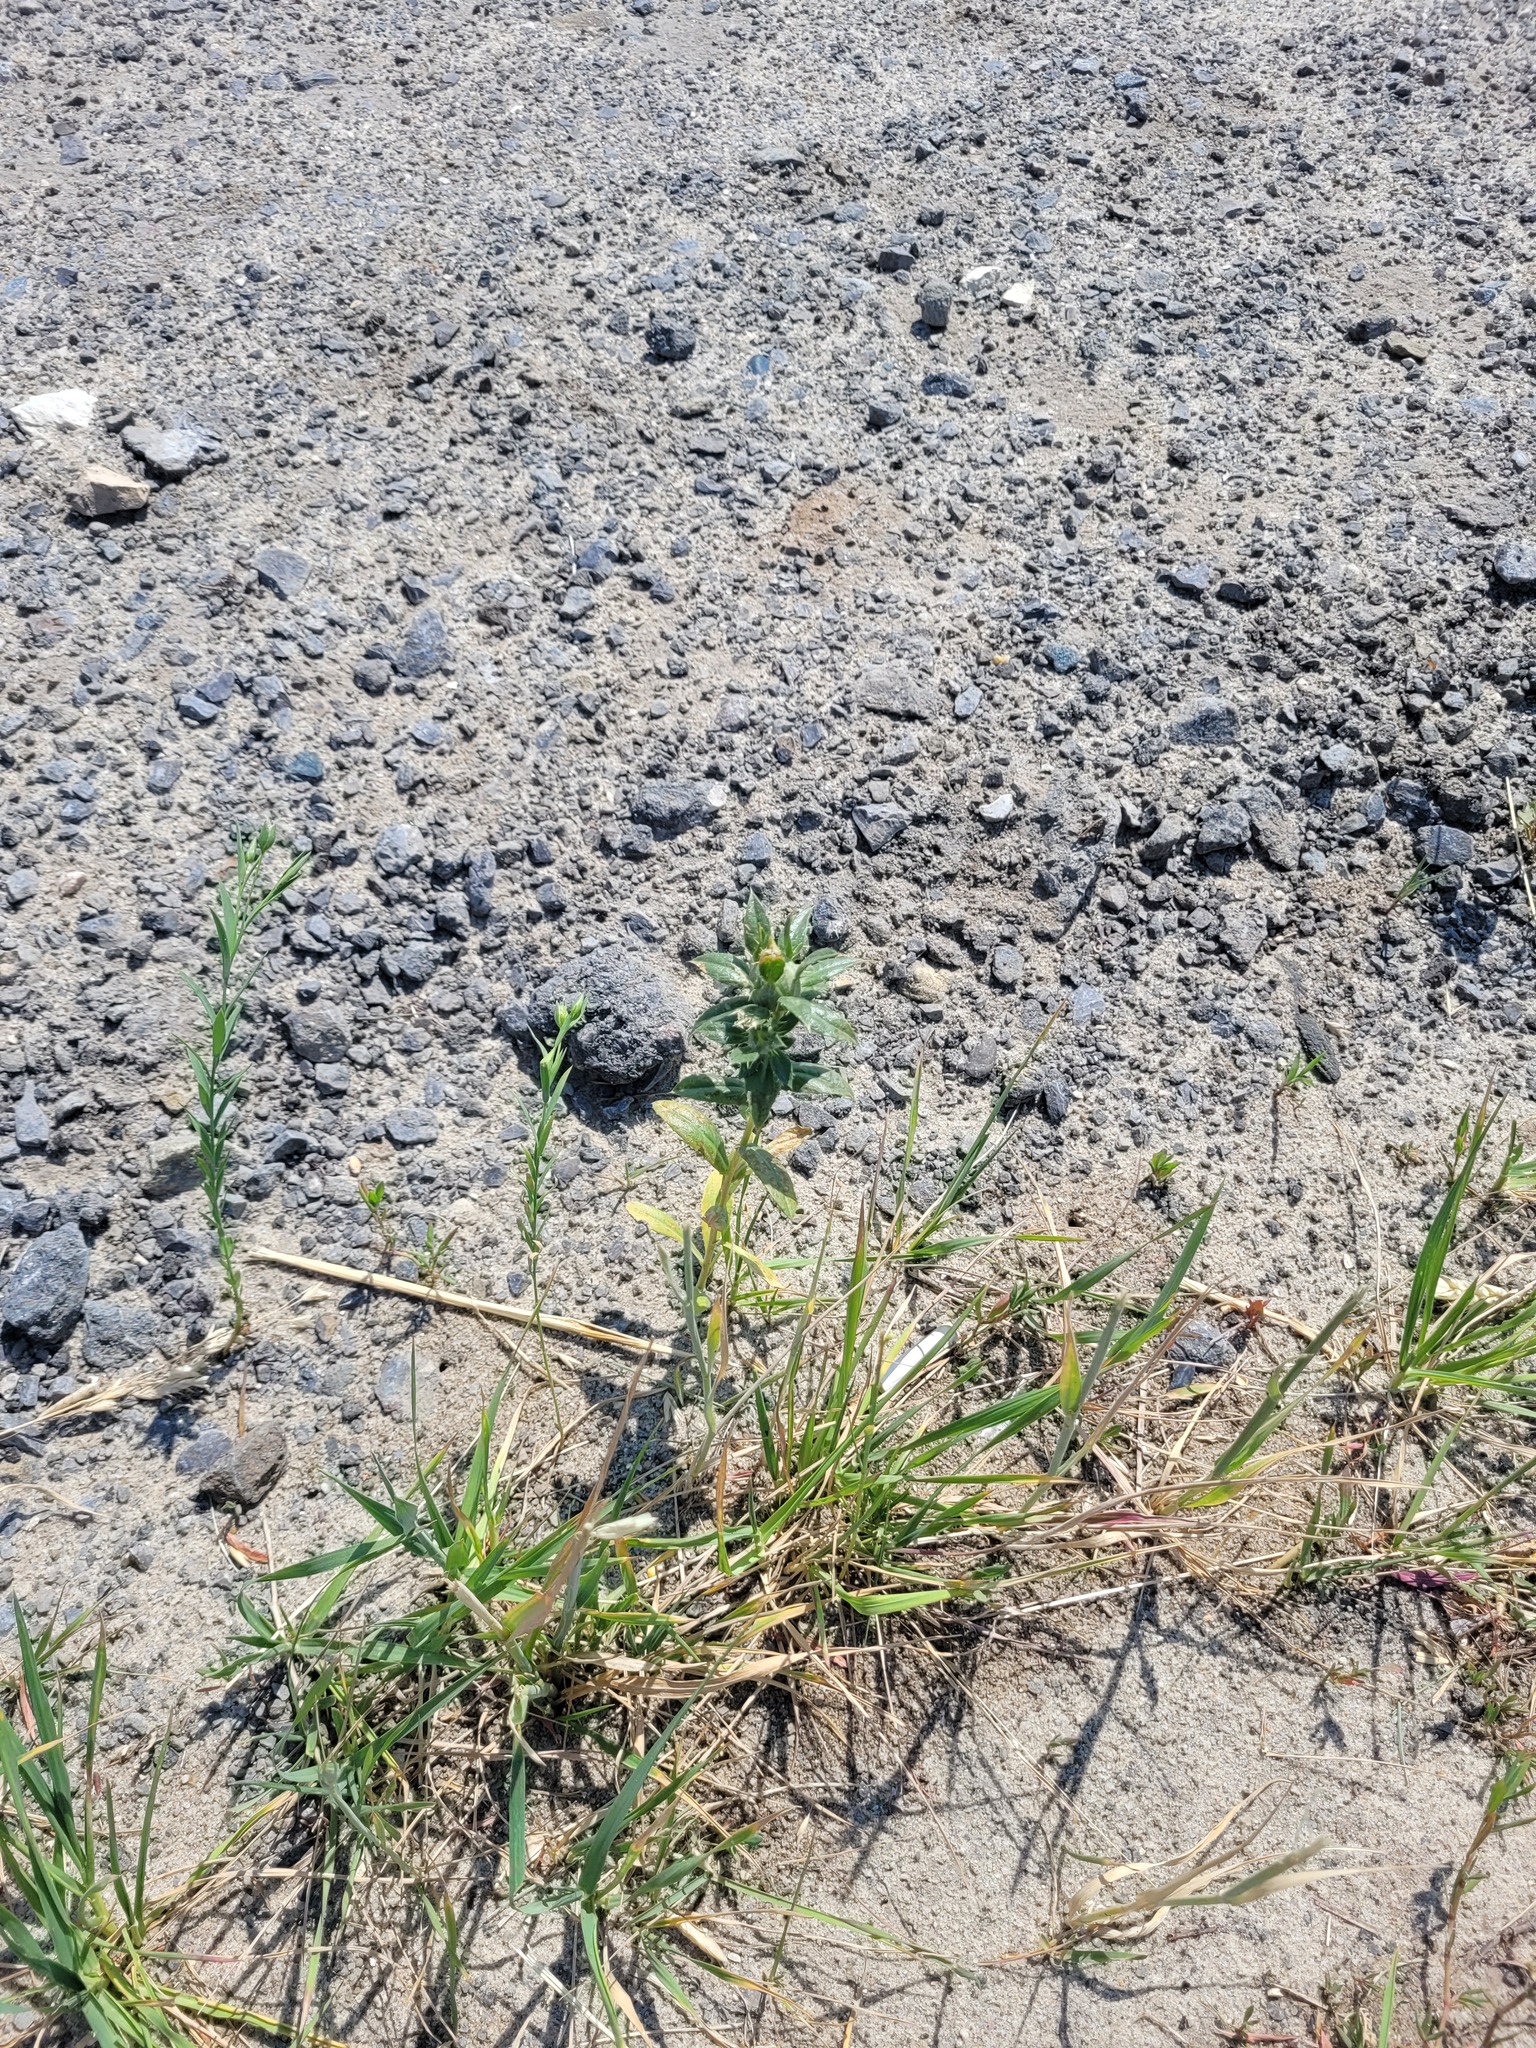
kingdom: Plantae
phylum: Tracheophyta
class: Magnoliopsida
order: Asterales
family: Asteraceae
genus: Carthamus
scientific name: Carthamus tinctorius
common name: Safflower
